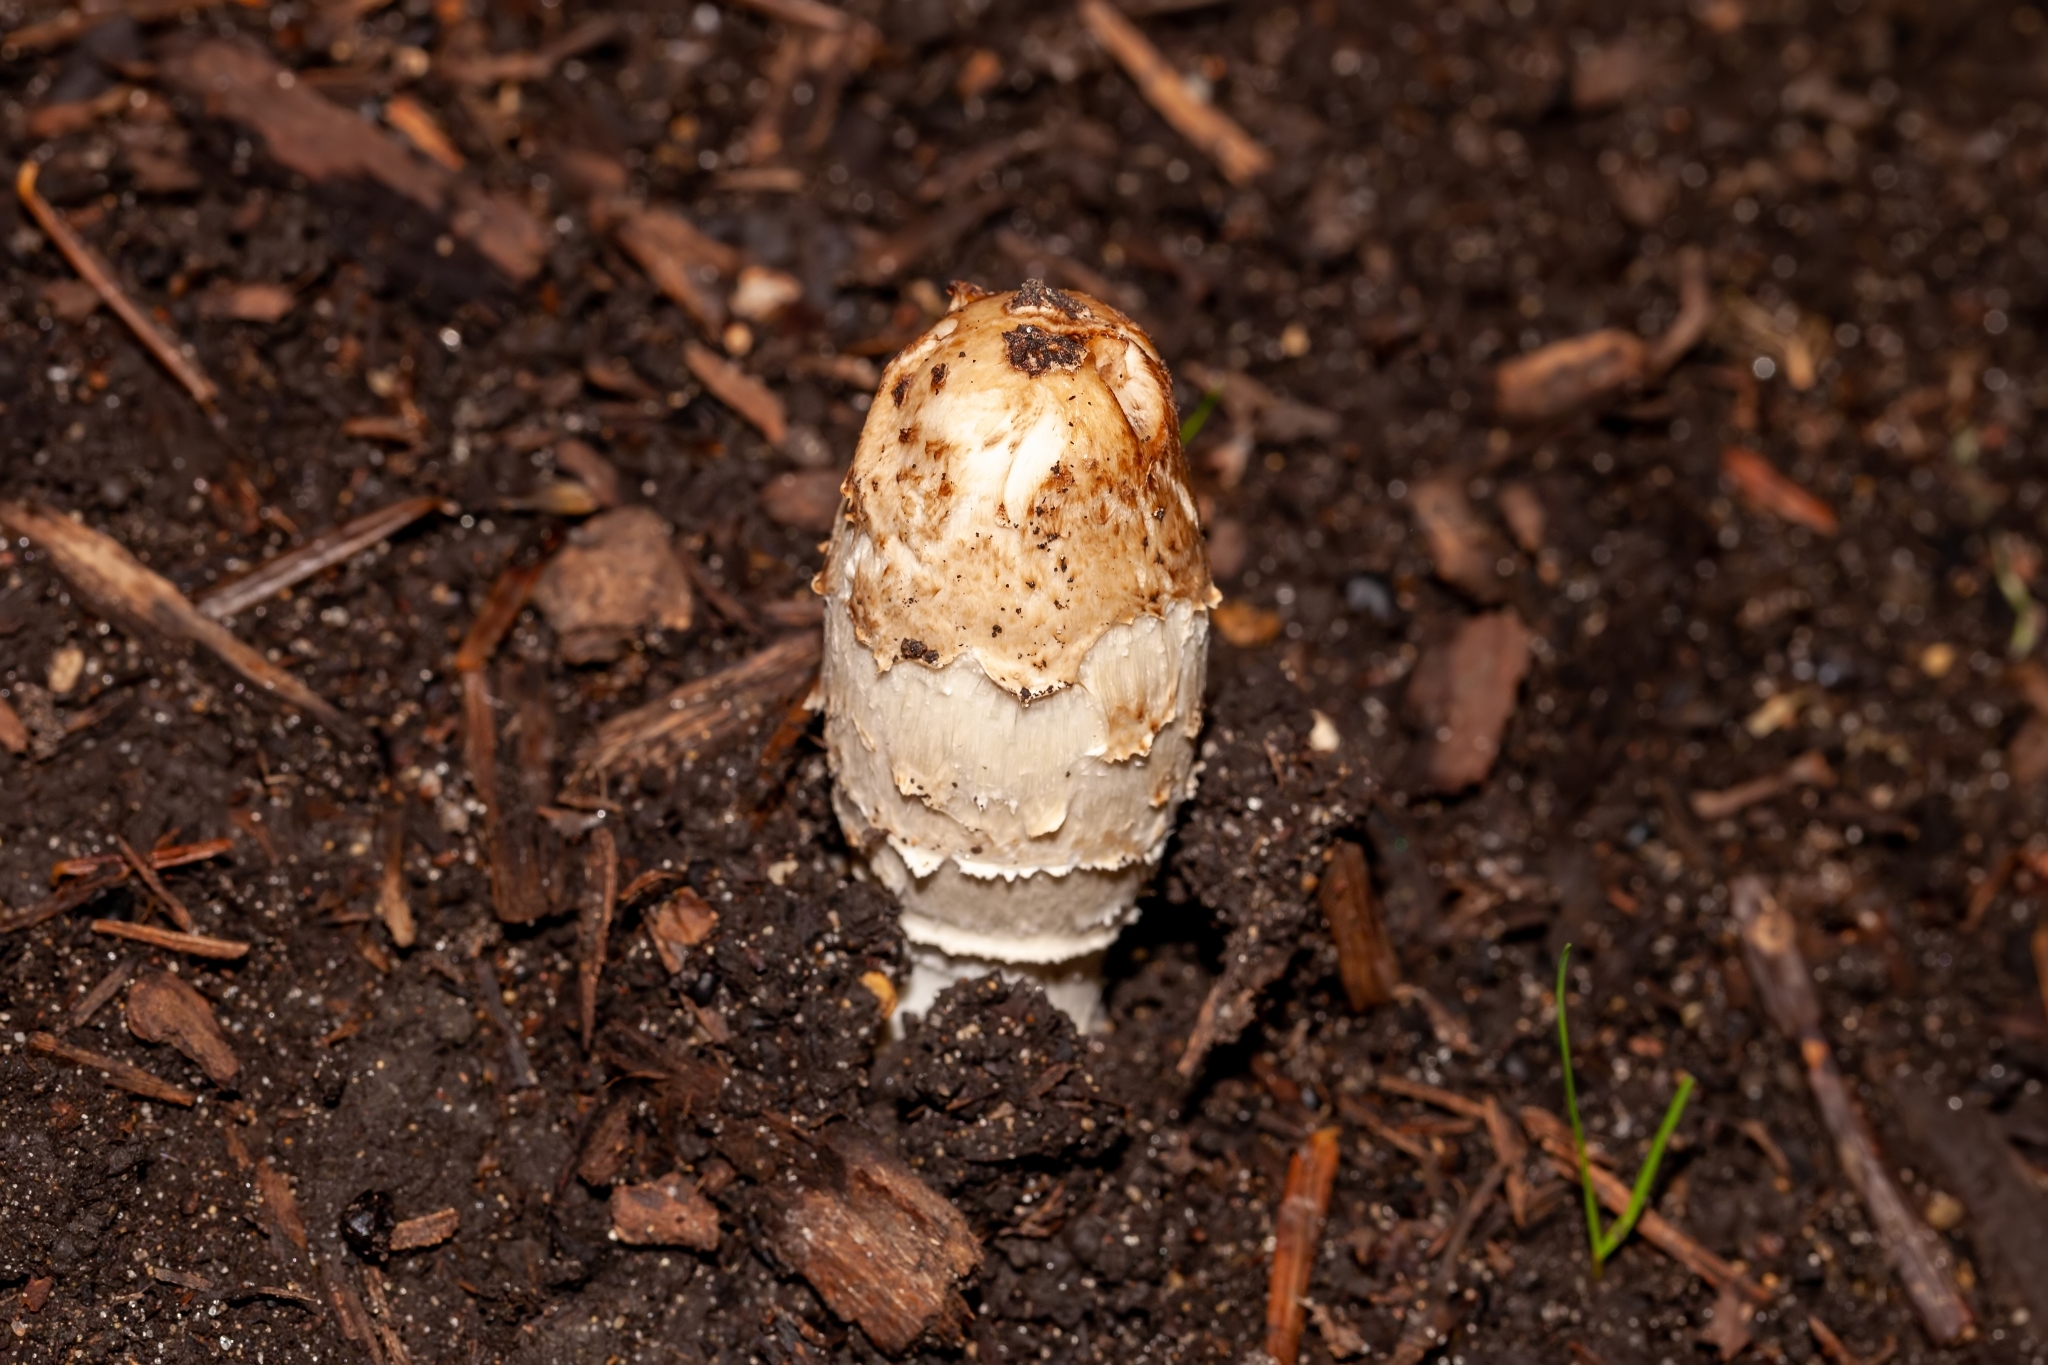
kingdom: Fungi
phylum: Basidiomycota
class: Agaricomycetes
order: Agaricales
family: Agaricaceae
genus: Coprinus
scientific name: Coprinus comatus
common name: Lawyer's wig
